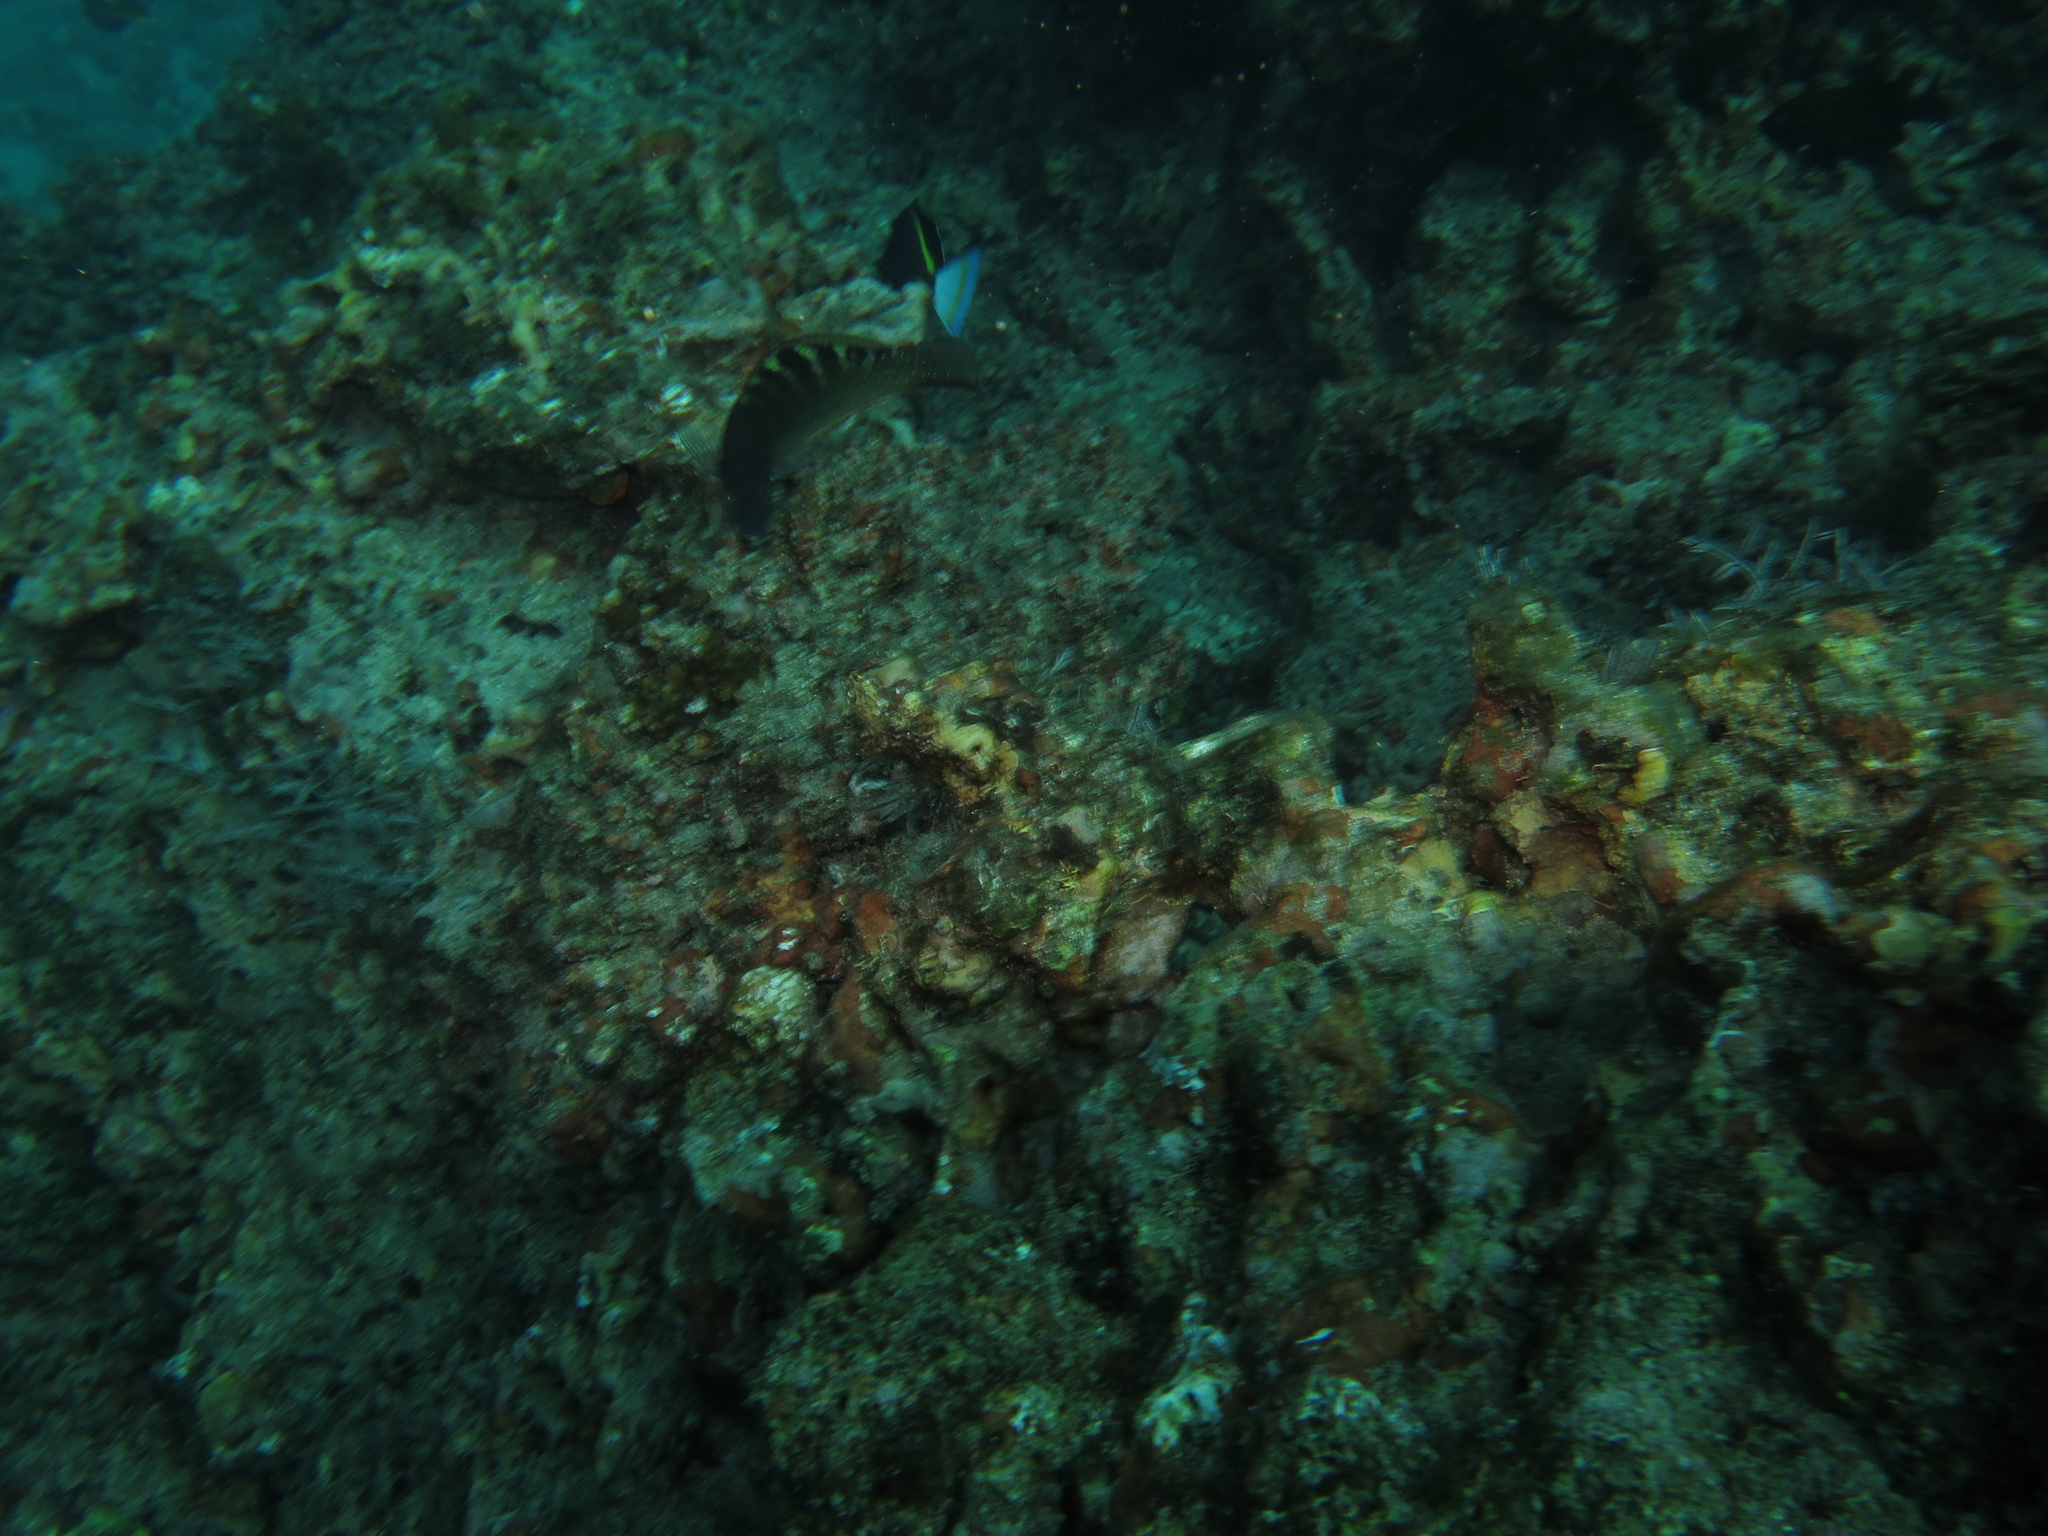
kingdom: Animalia
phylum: Chordata
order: Perciformes
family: Labridae
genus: Halichoeres
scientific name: Halichoeres notospilus
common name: Banded wrasse
